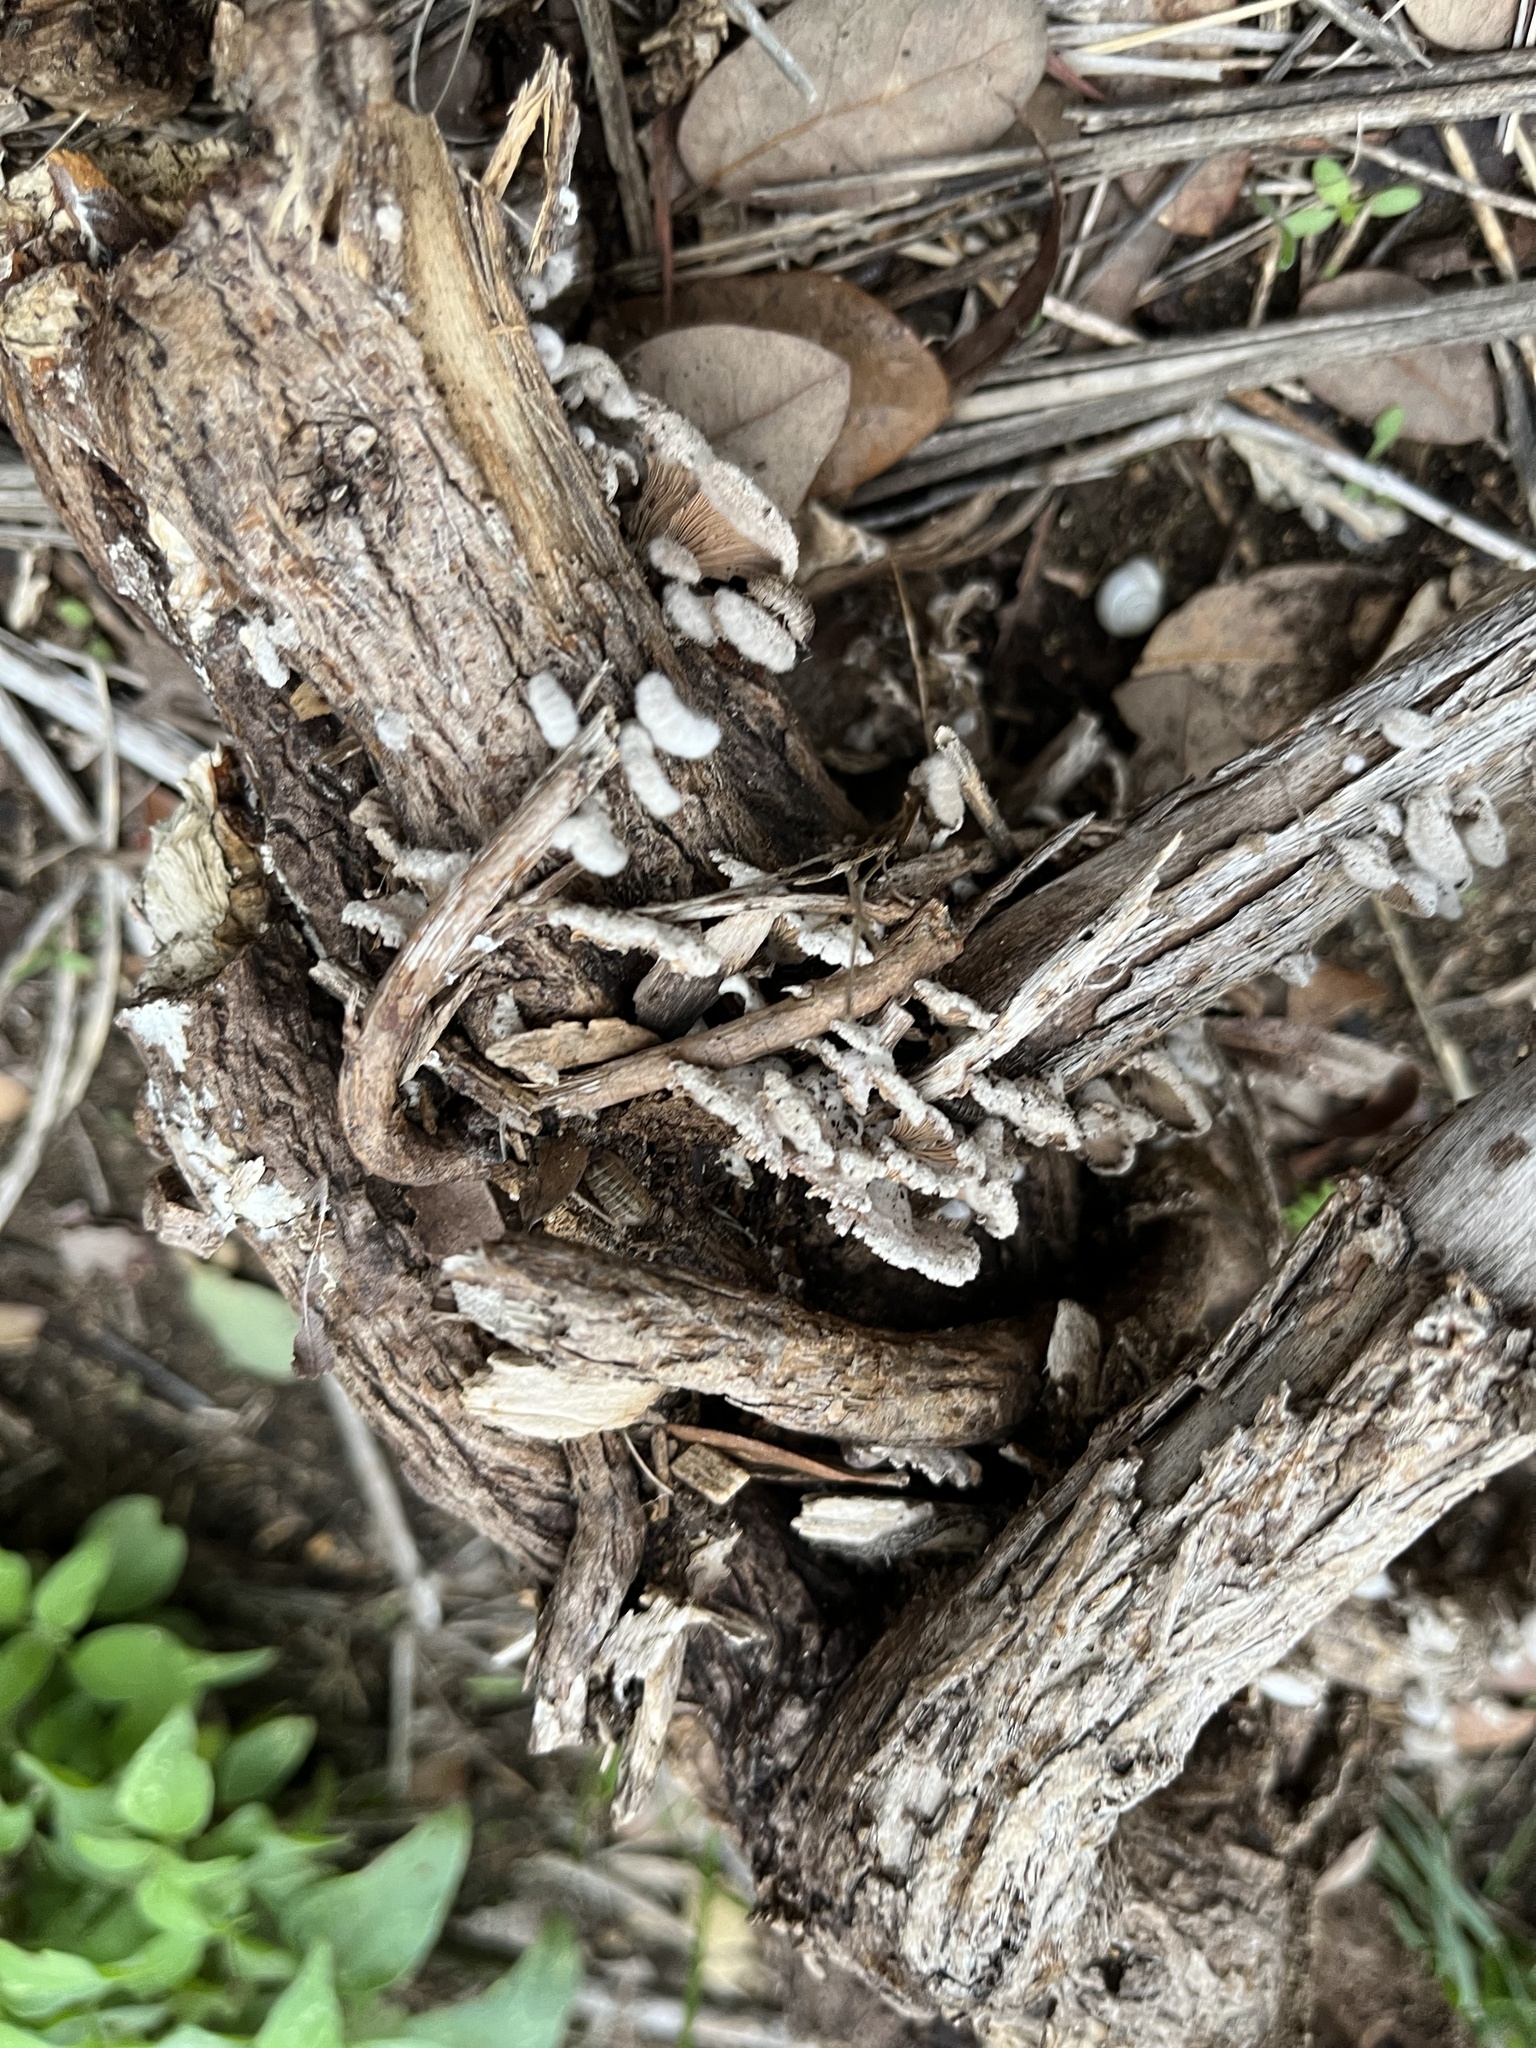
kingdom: Fungi
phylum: Basidiomycota
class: Agaricomycetes
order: Agaricales
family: Schizophyllaceae
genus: Schizophyllum
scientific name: Schizophyllum commune
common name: Common porecrust
